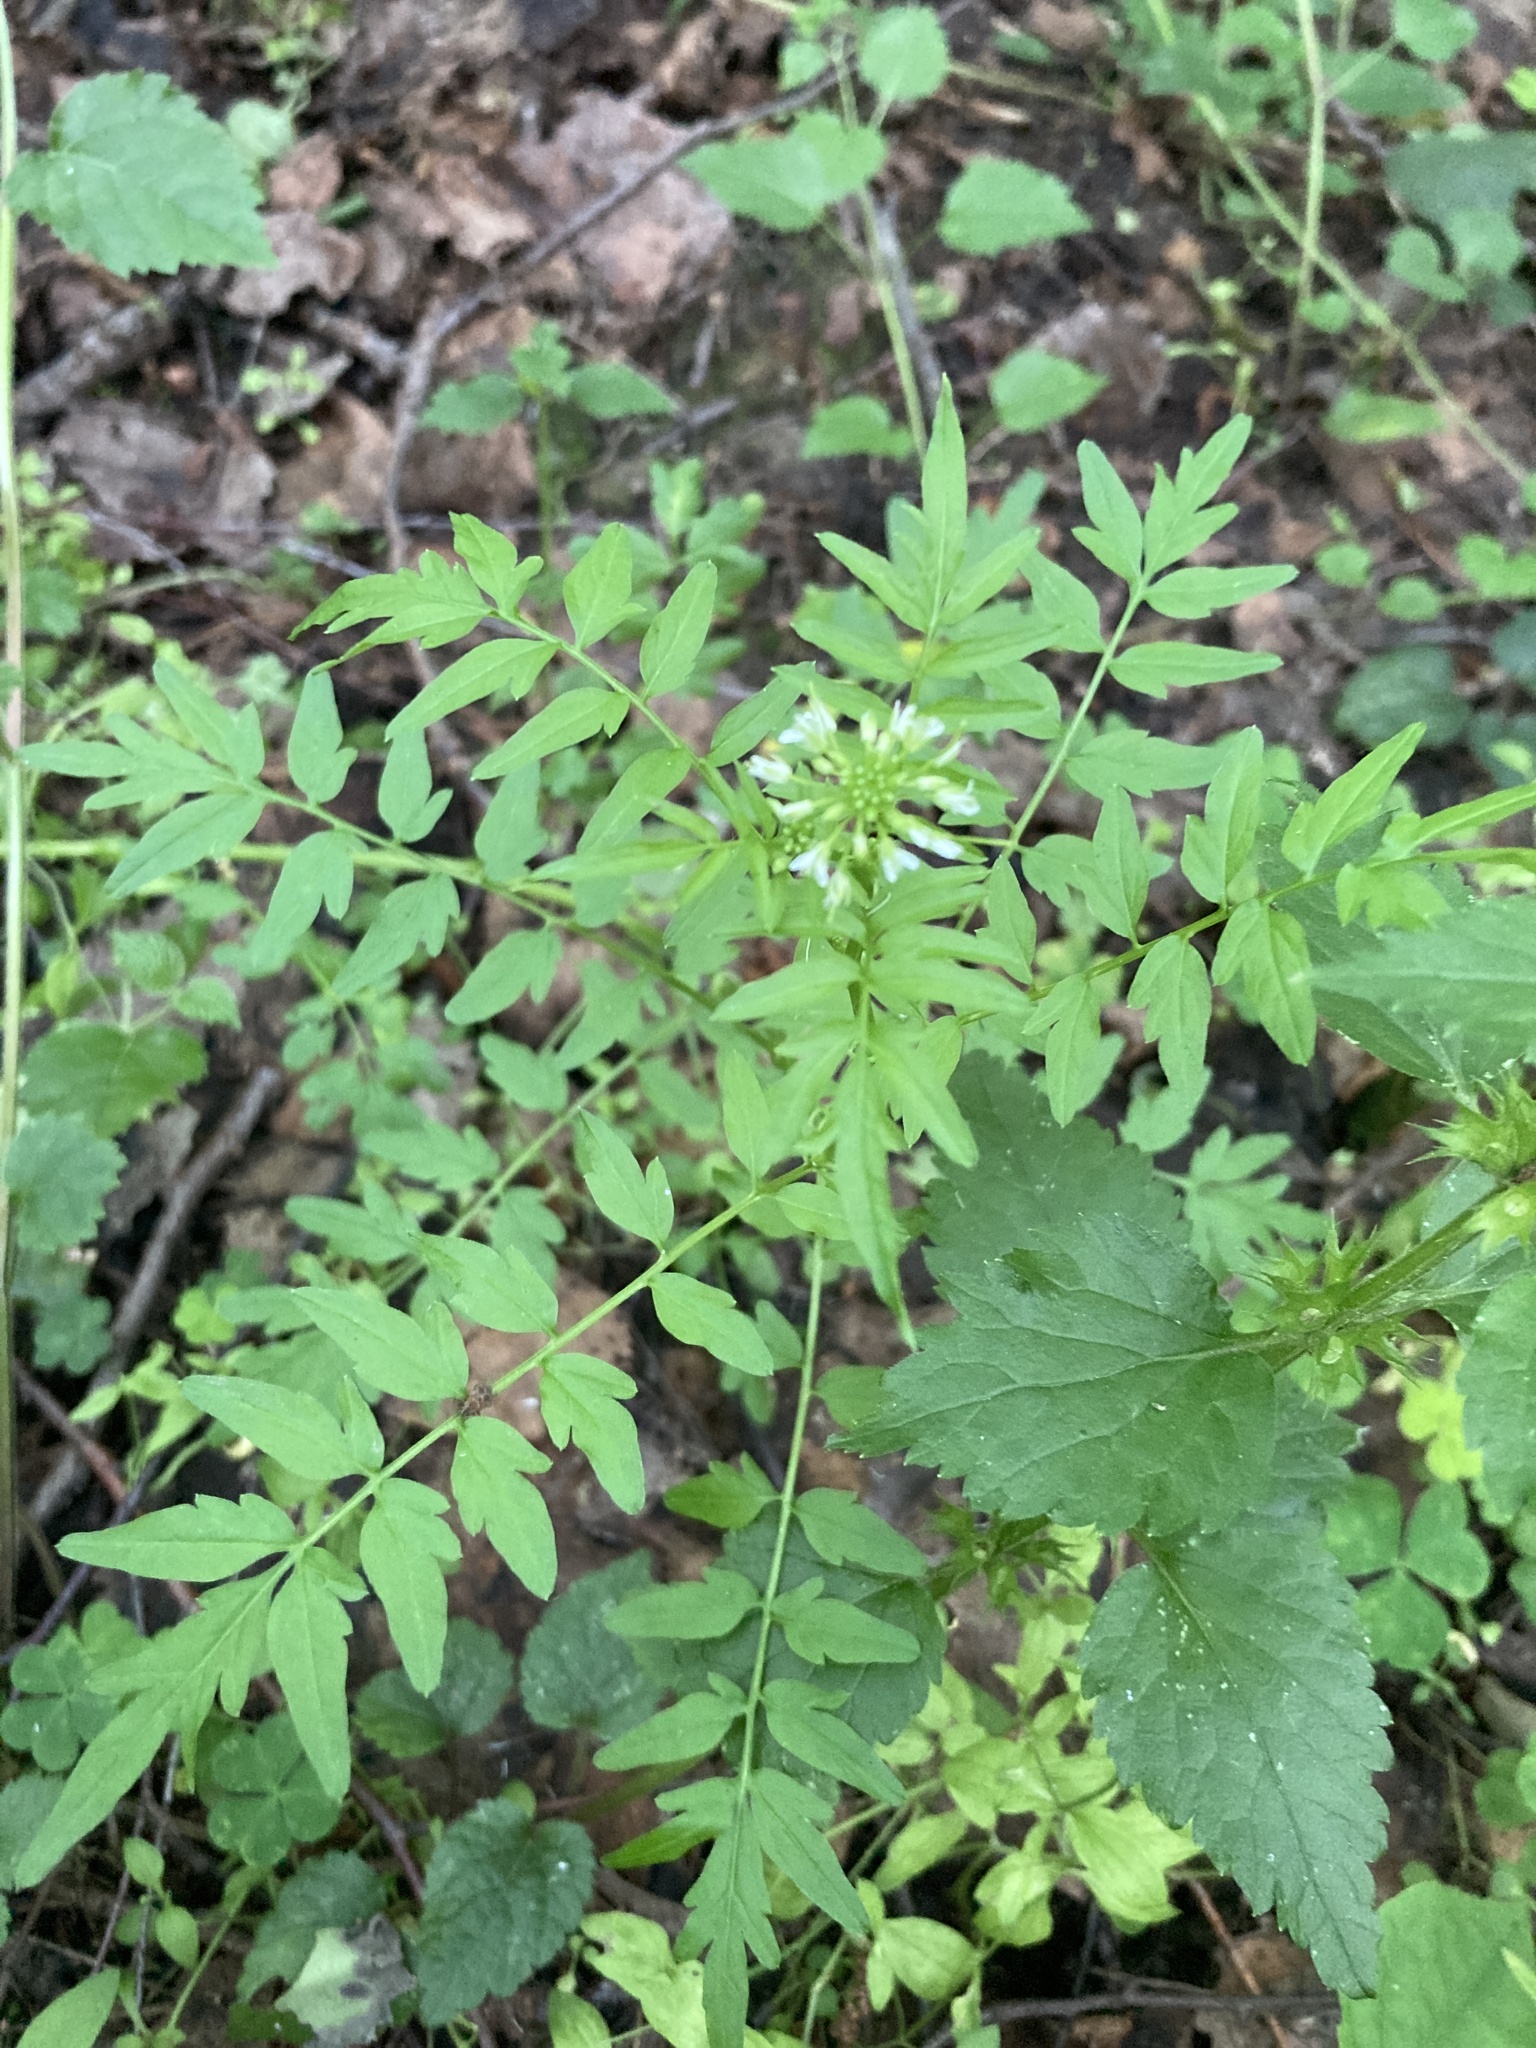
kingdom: Plantae
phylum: Tracheophyta
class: Magnoliopsida
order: Brassicales
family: Brassicaceae
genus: Cardamine
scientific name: Cardamine impatiens
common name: Narrow-leaved bitter-cress
